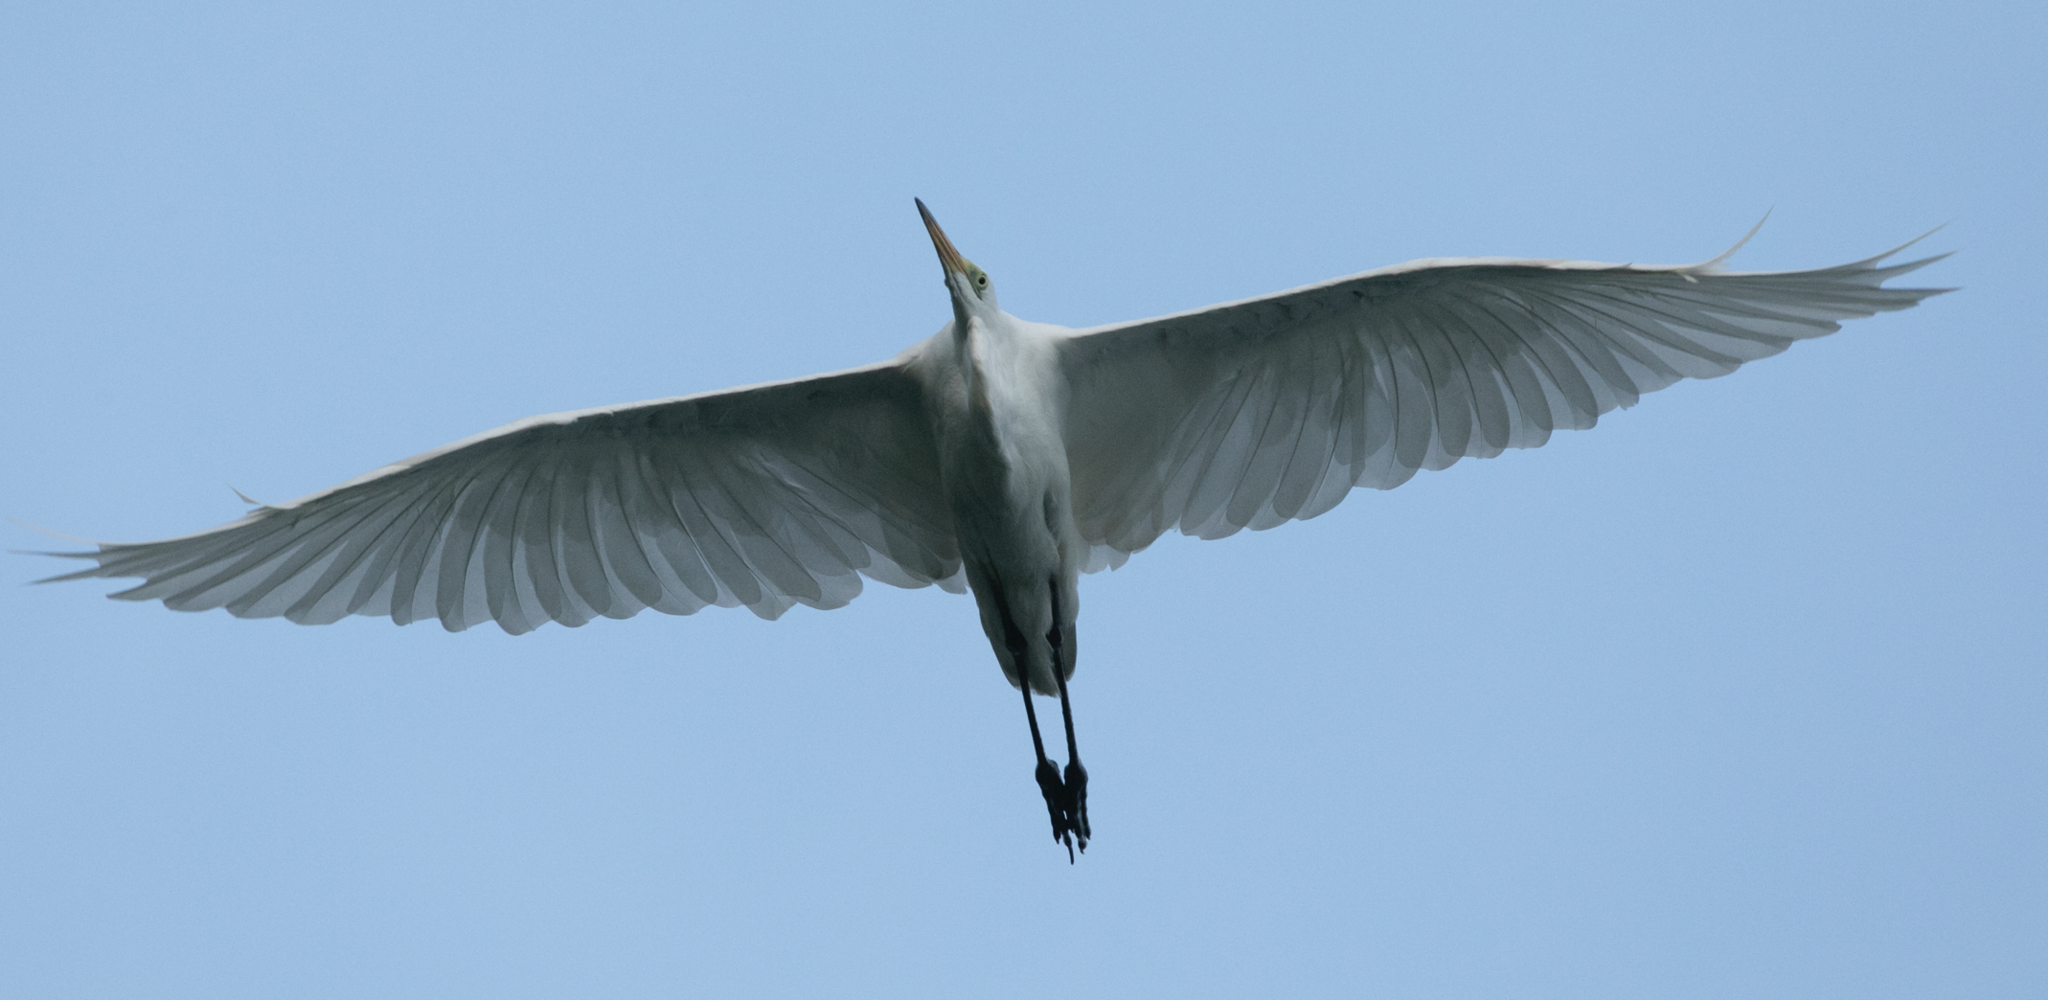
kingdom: Animalia
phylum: Chordata
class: Aves
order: Pelecaniformes
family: Ardeidae
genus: Ardea
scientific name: Ardea alba
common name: Great egret
